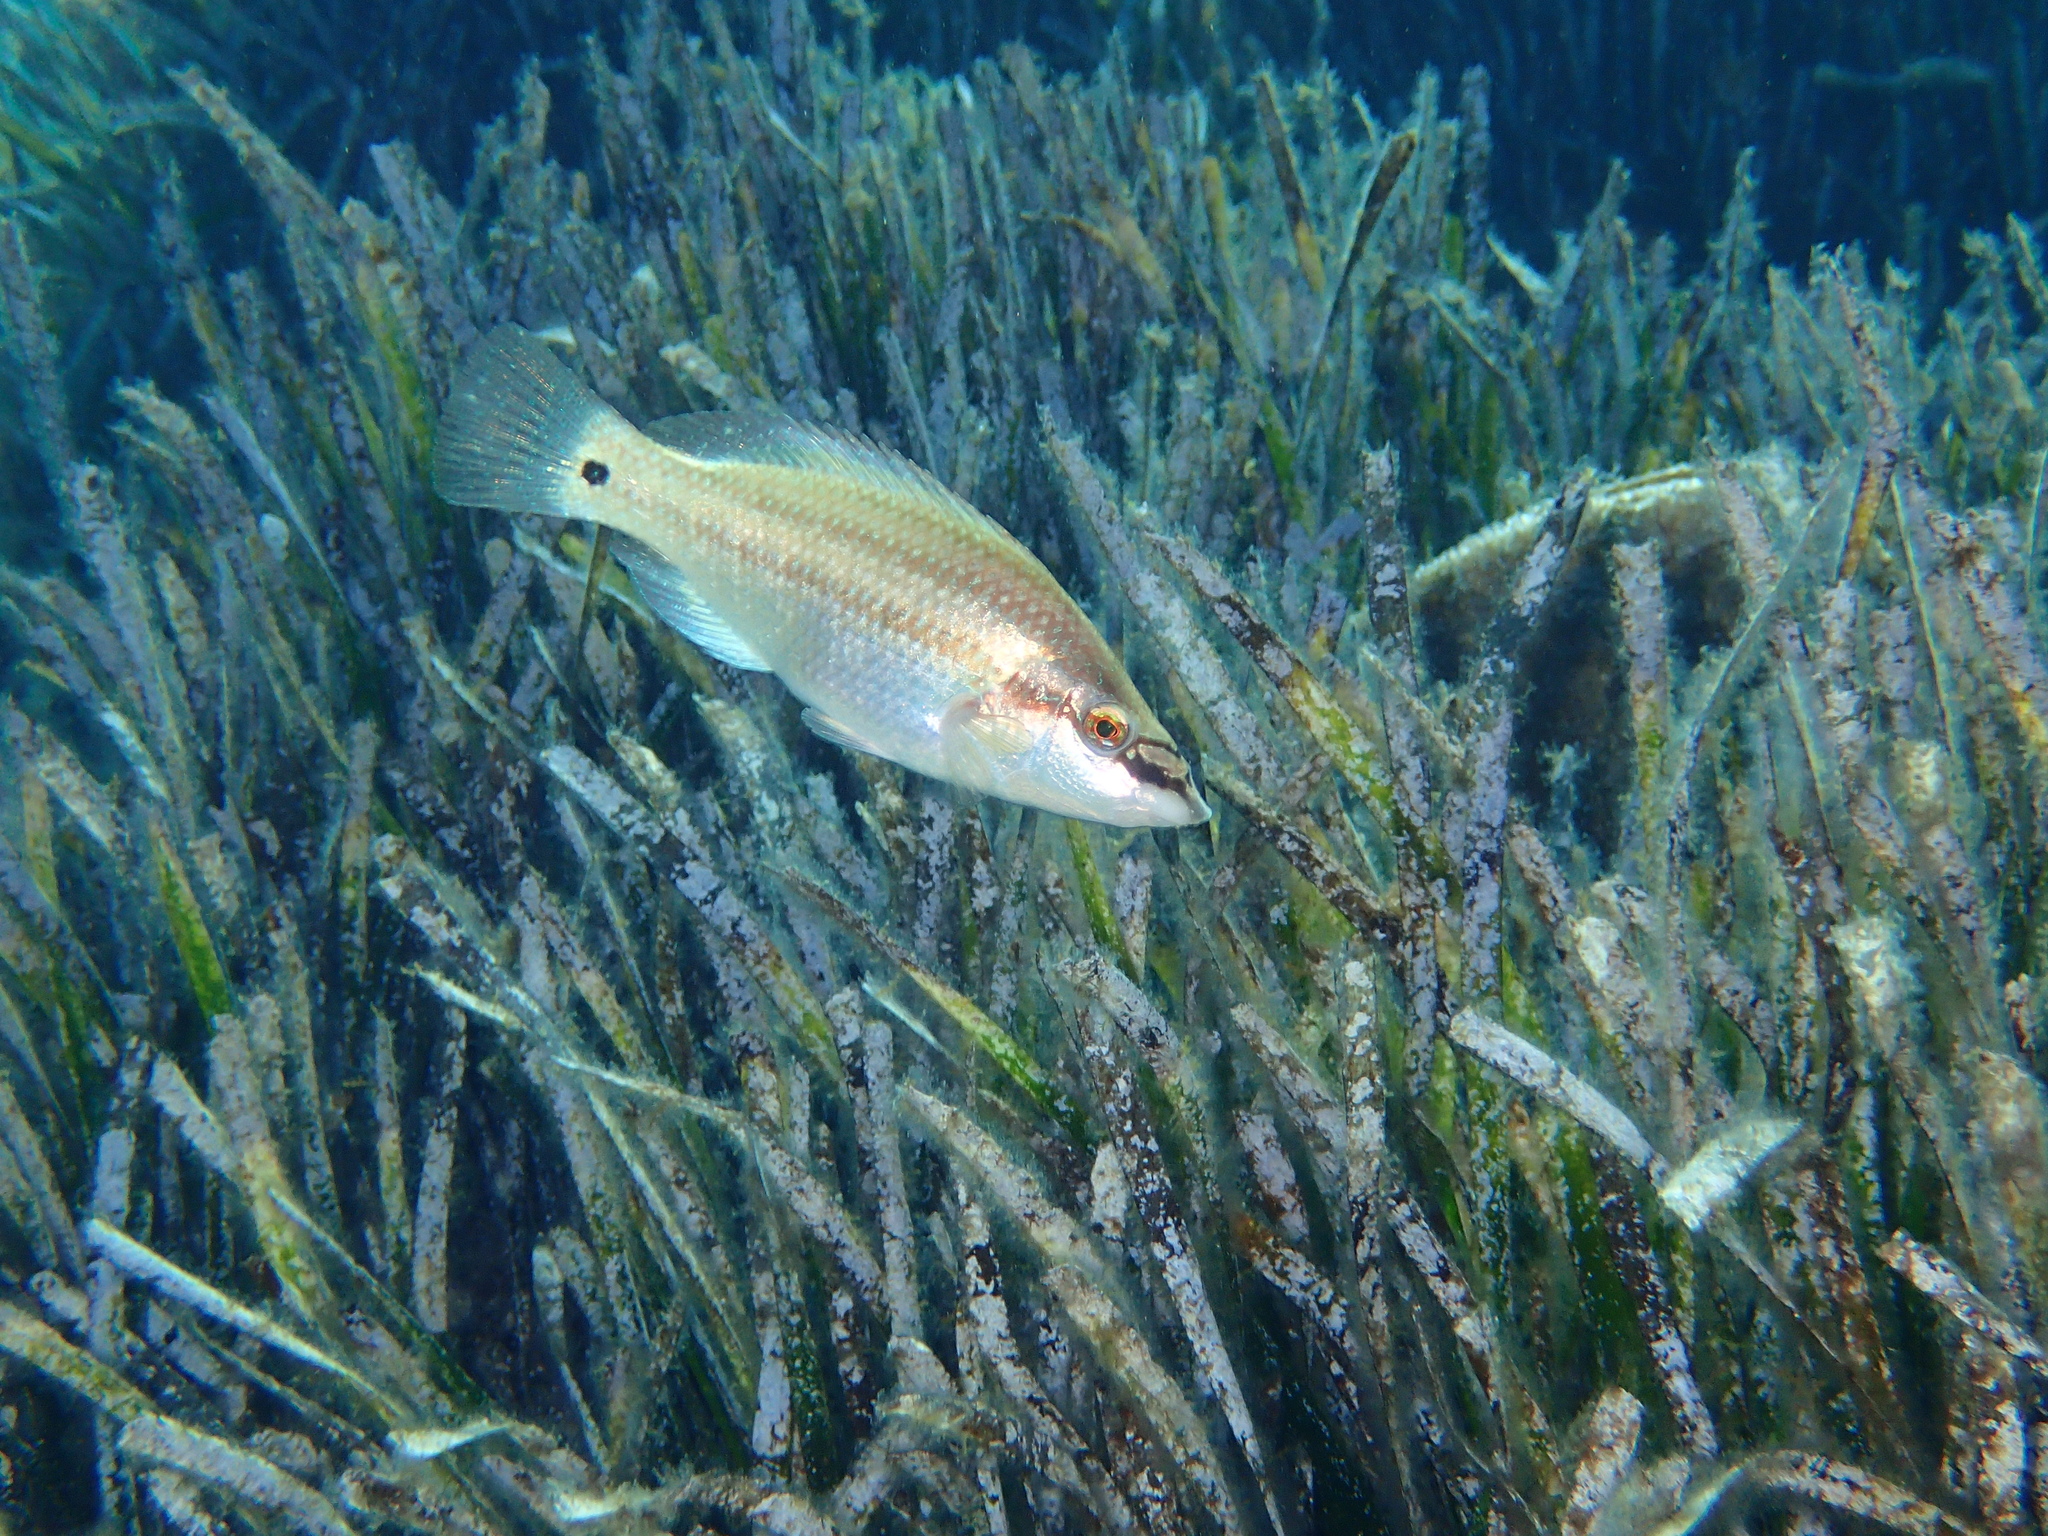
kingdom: Animalia
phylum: Chordata
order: Perciformes
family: Labridae
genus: Symphodus
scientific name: Symphodus tinca
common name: Peacock wrasse
